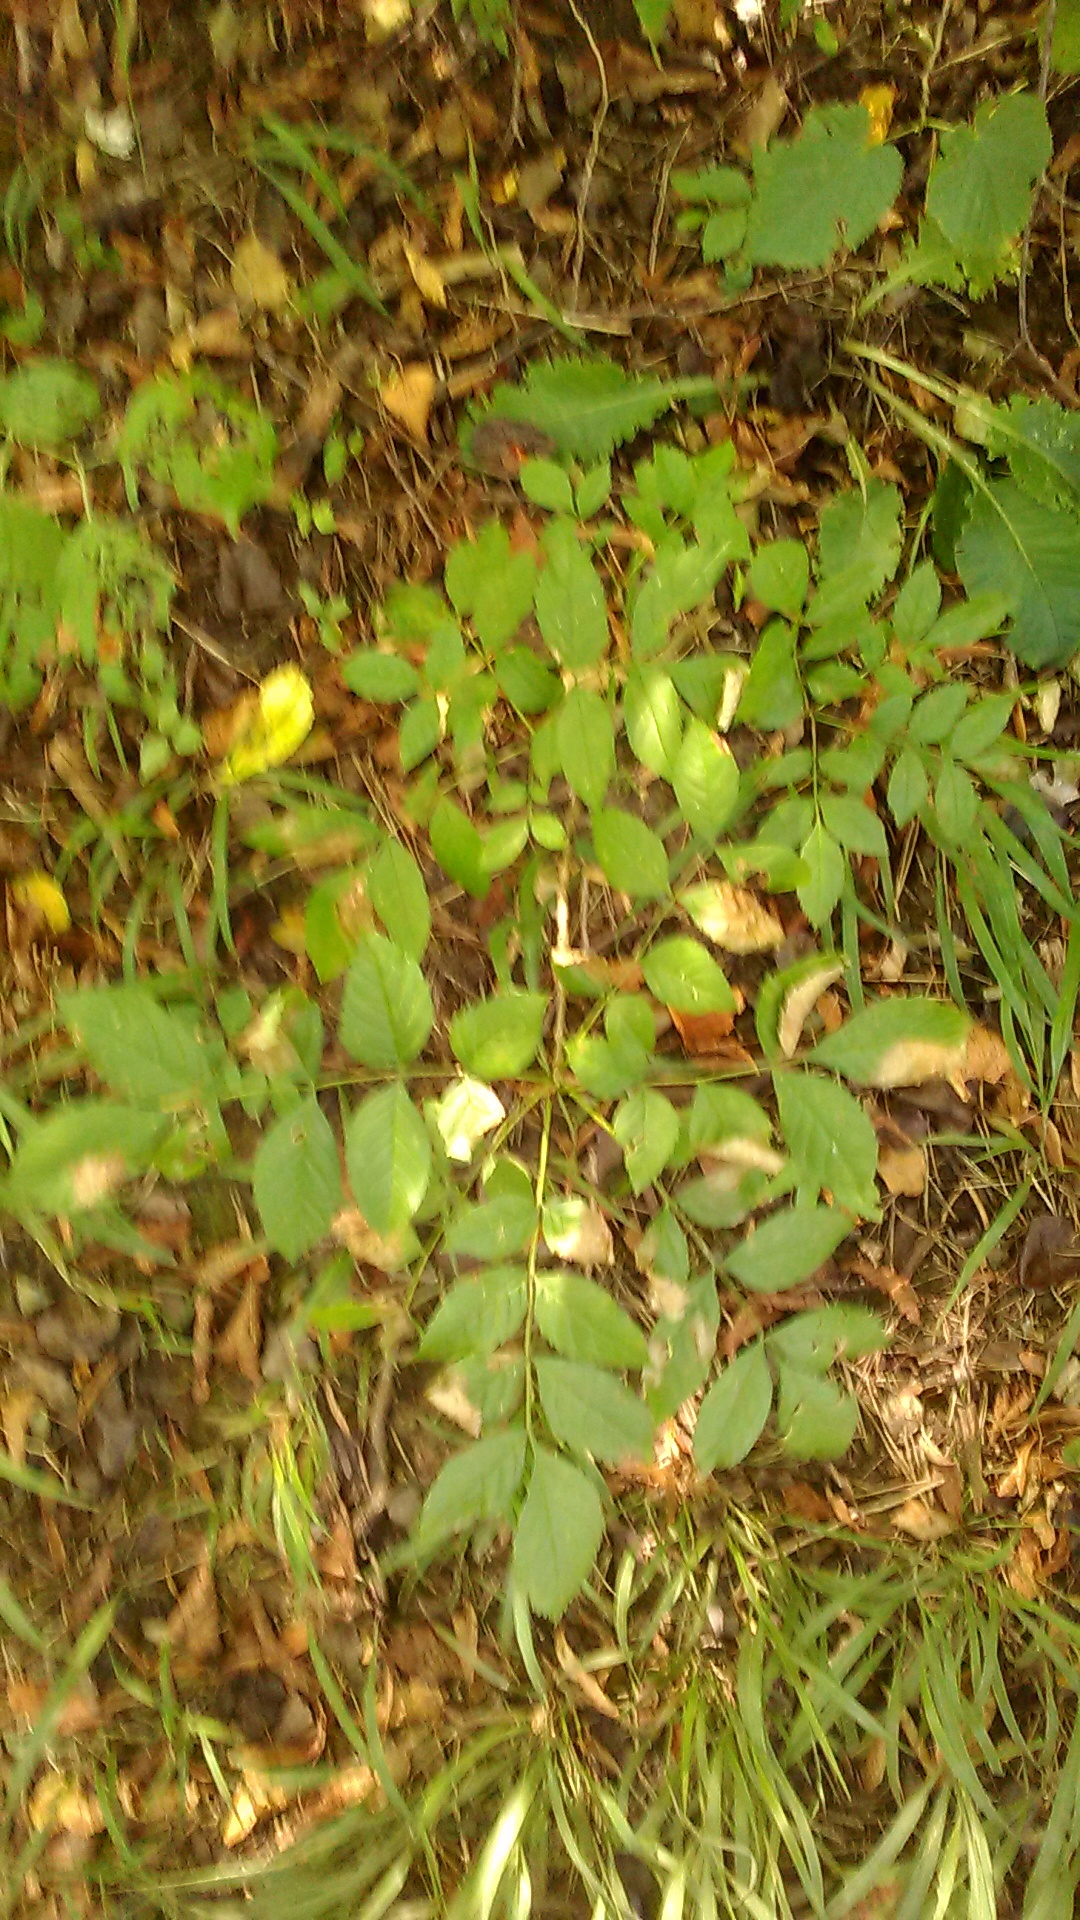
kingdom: Plantae
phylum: Tracheophyta
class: Magnoliopsida
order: Lamiales
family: Oleaceae
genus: Fraxinus
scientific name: Fraxinus excelsior
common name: European ash
